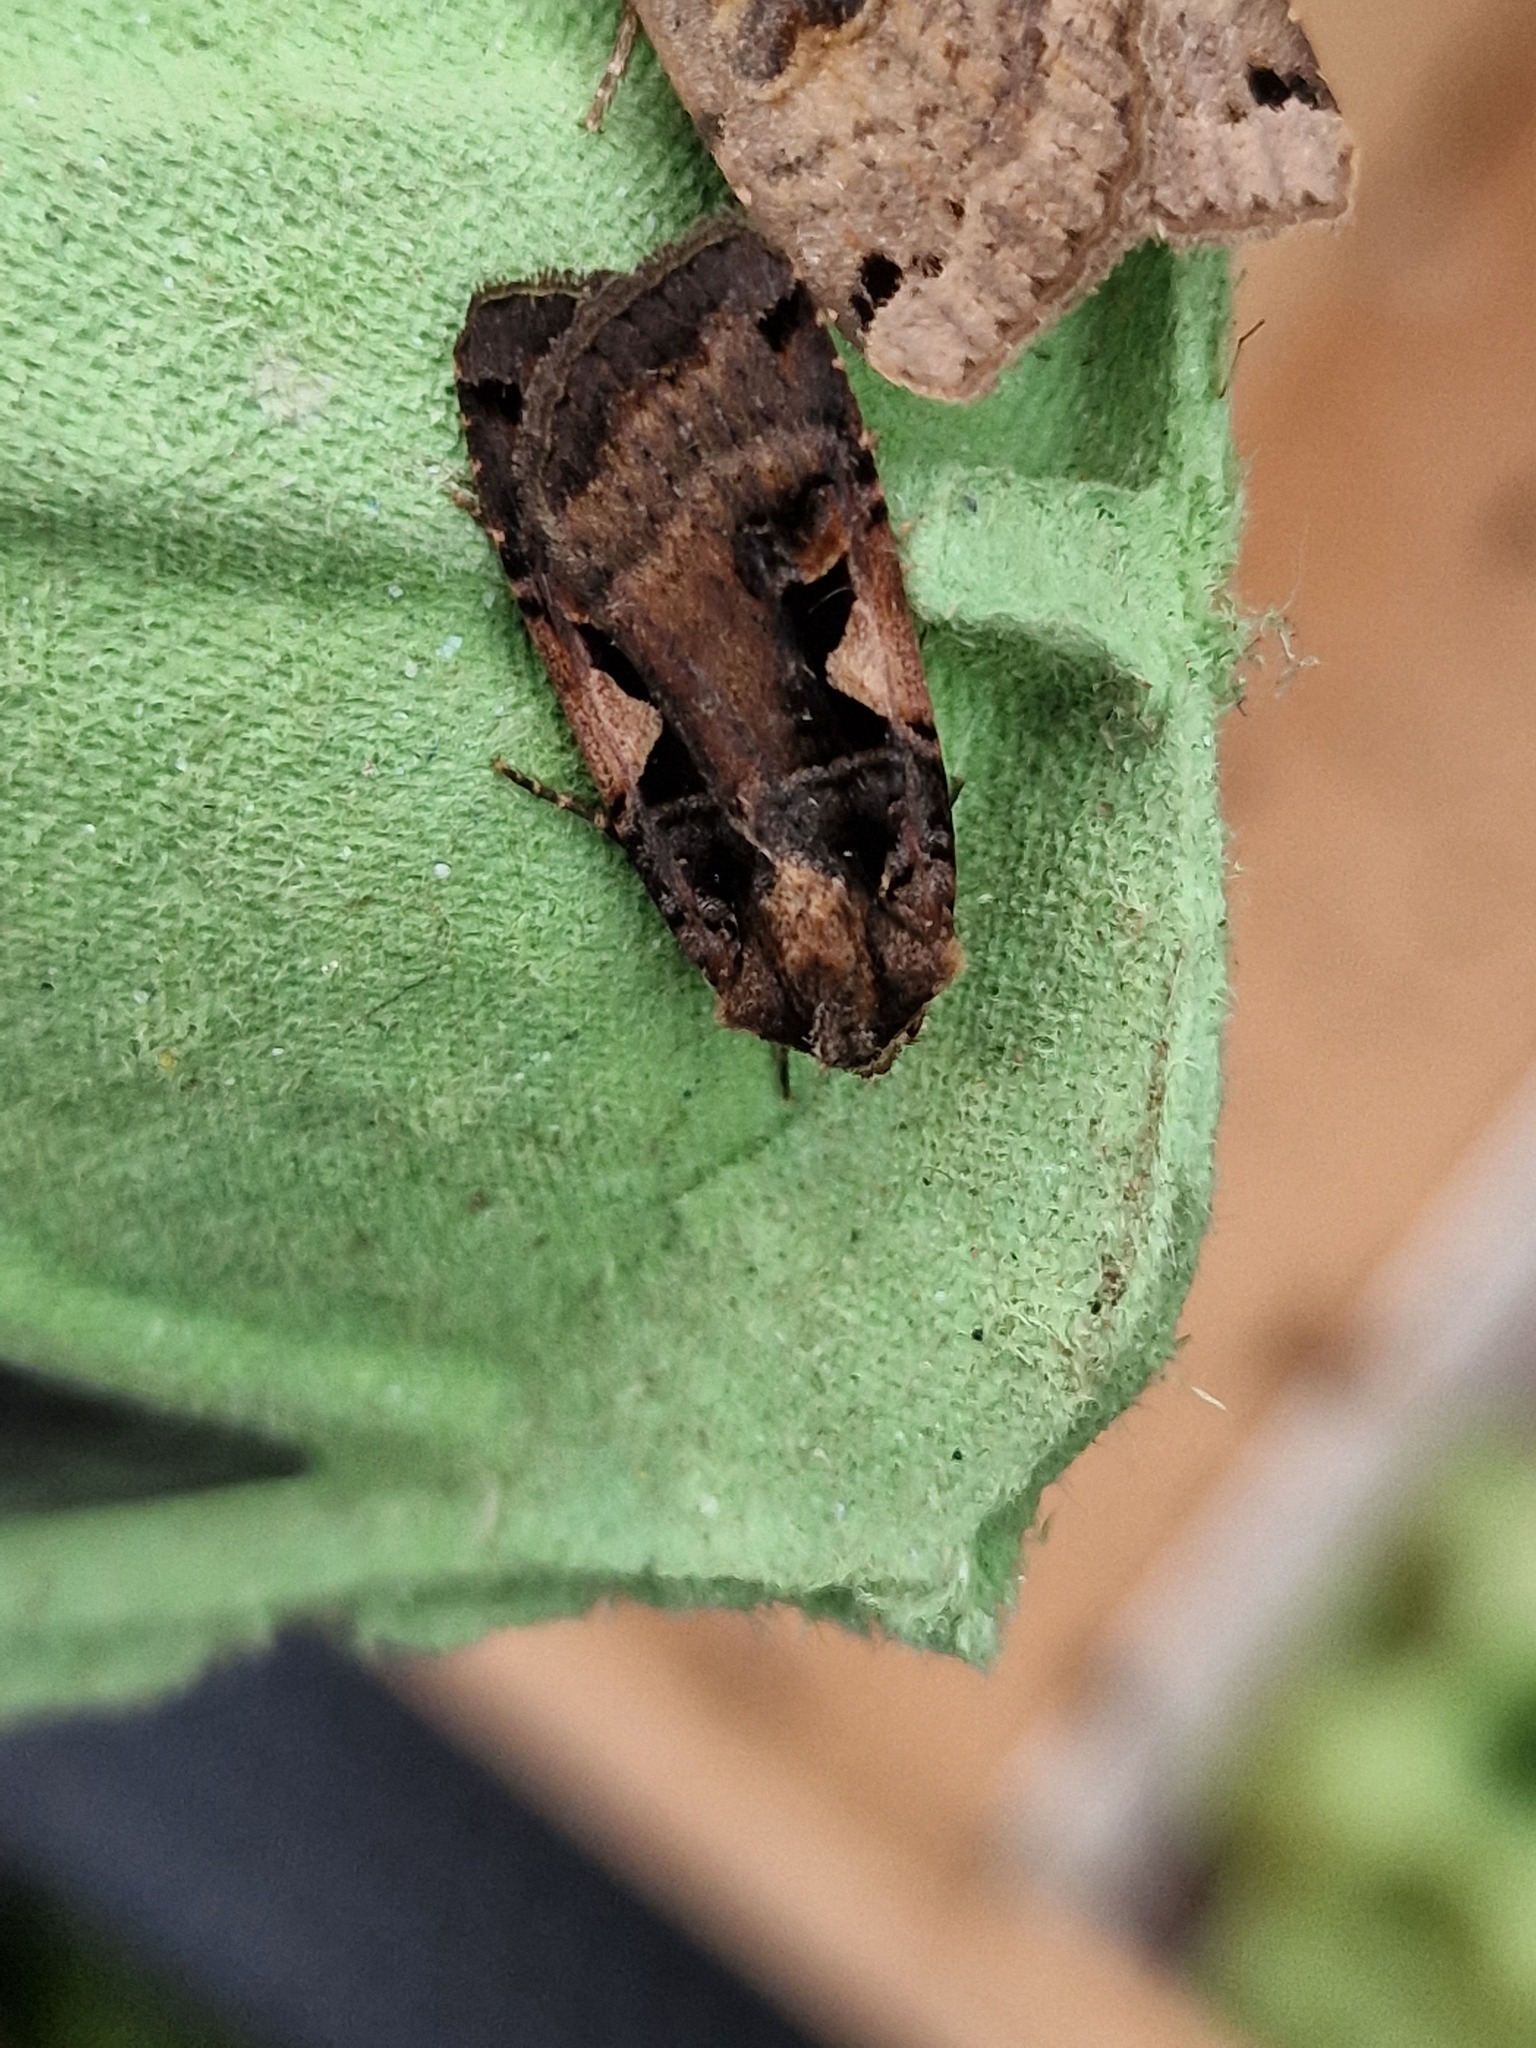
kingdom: Animalia
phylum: Arthropoda
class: Insecta
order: Lepidoptera
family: Noctuidae
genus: Xestia
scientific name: Xestia c-nigrum
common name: Setaceous hebrew character
